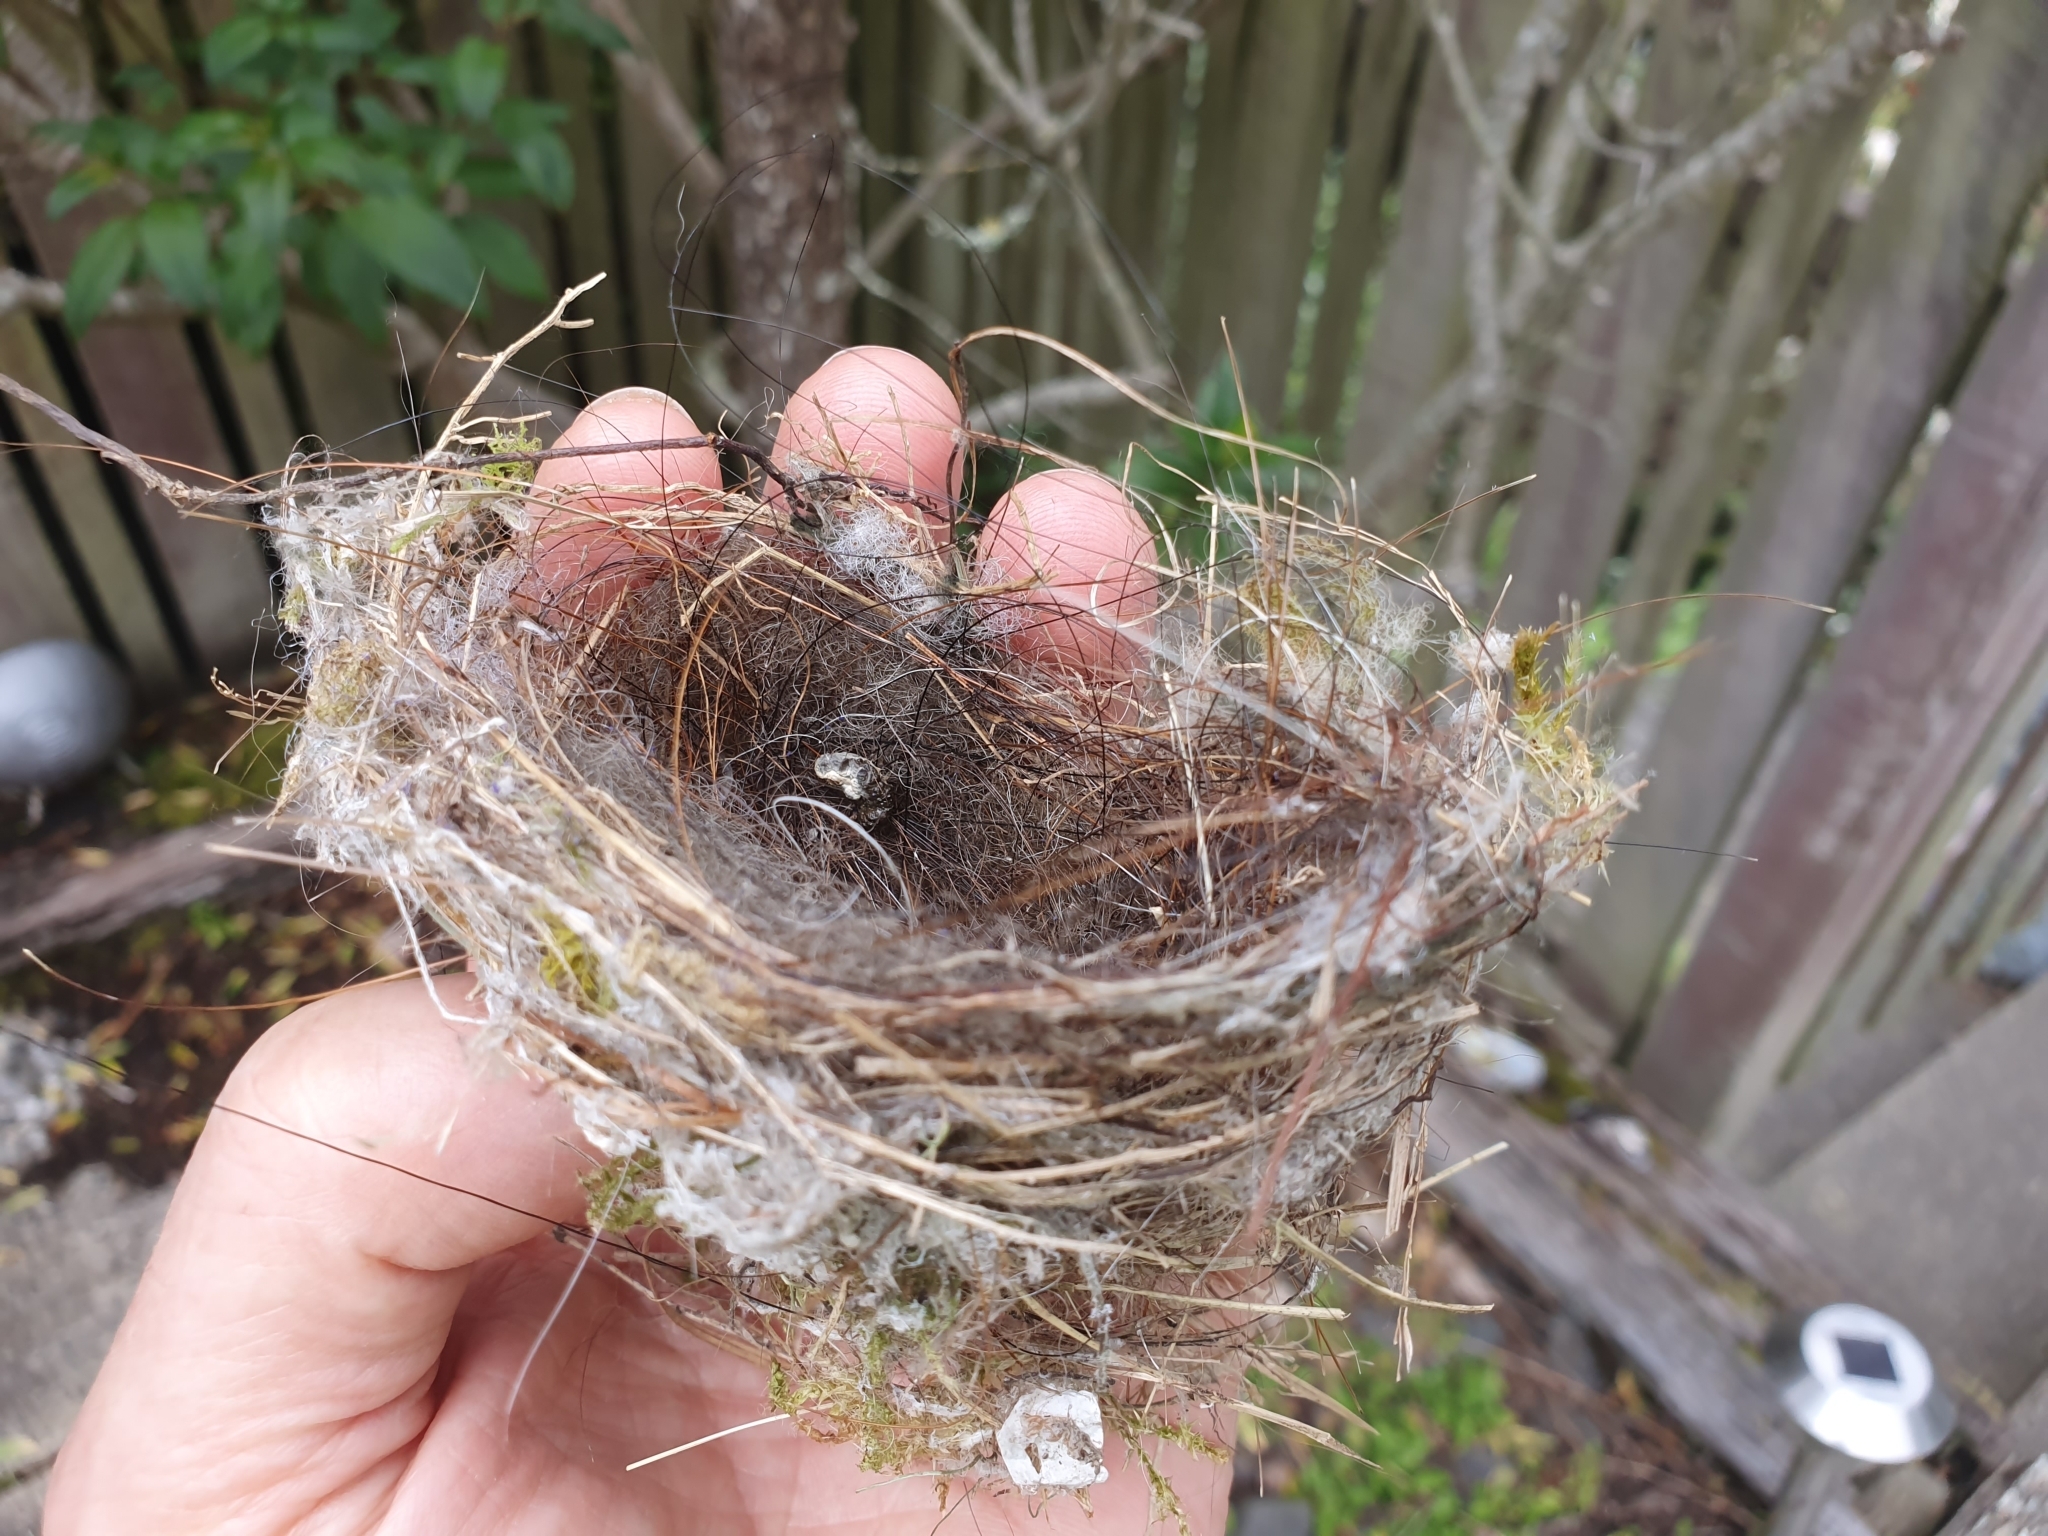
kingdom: Animalia
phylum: Chordata
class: Aves
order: Passeriformes
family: Zosteropidae
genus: Zosterops
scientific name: Zosterops lateralis
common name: Silvereye
